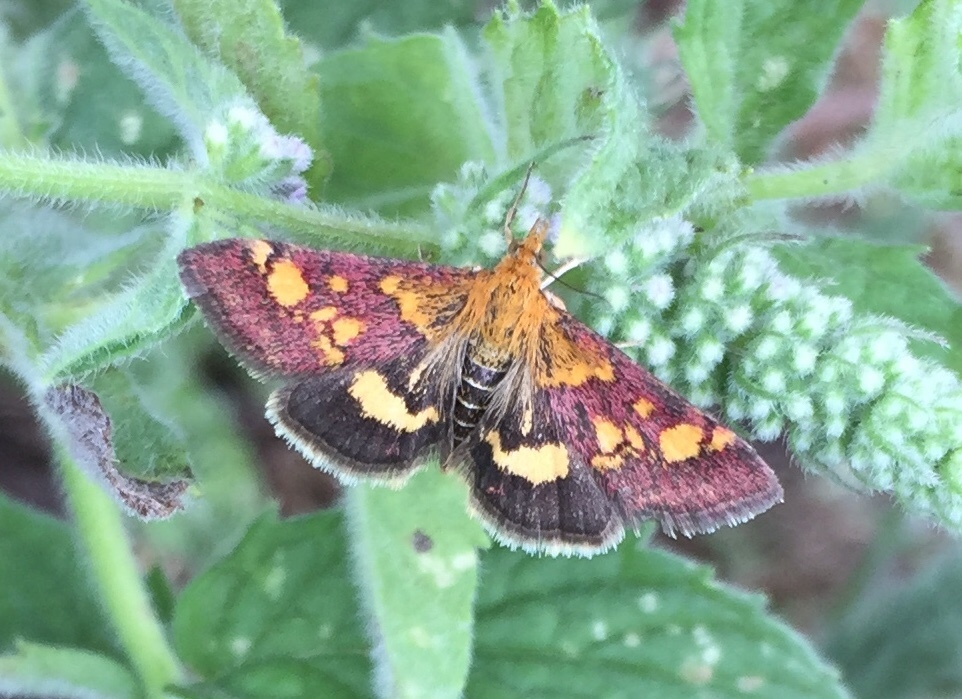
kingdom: Animalia
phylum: Arthropoda
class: Insecta
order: Lepidoptera
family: Crambidae
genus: Pyrausta
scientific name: Pyrausta aurata
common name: Small purple & gold
